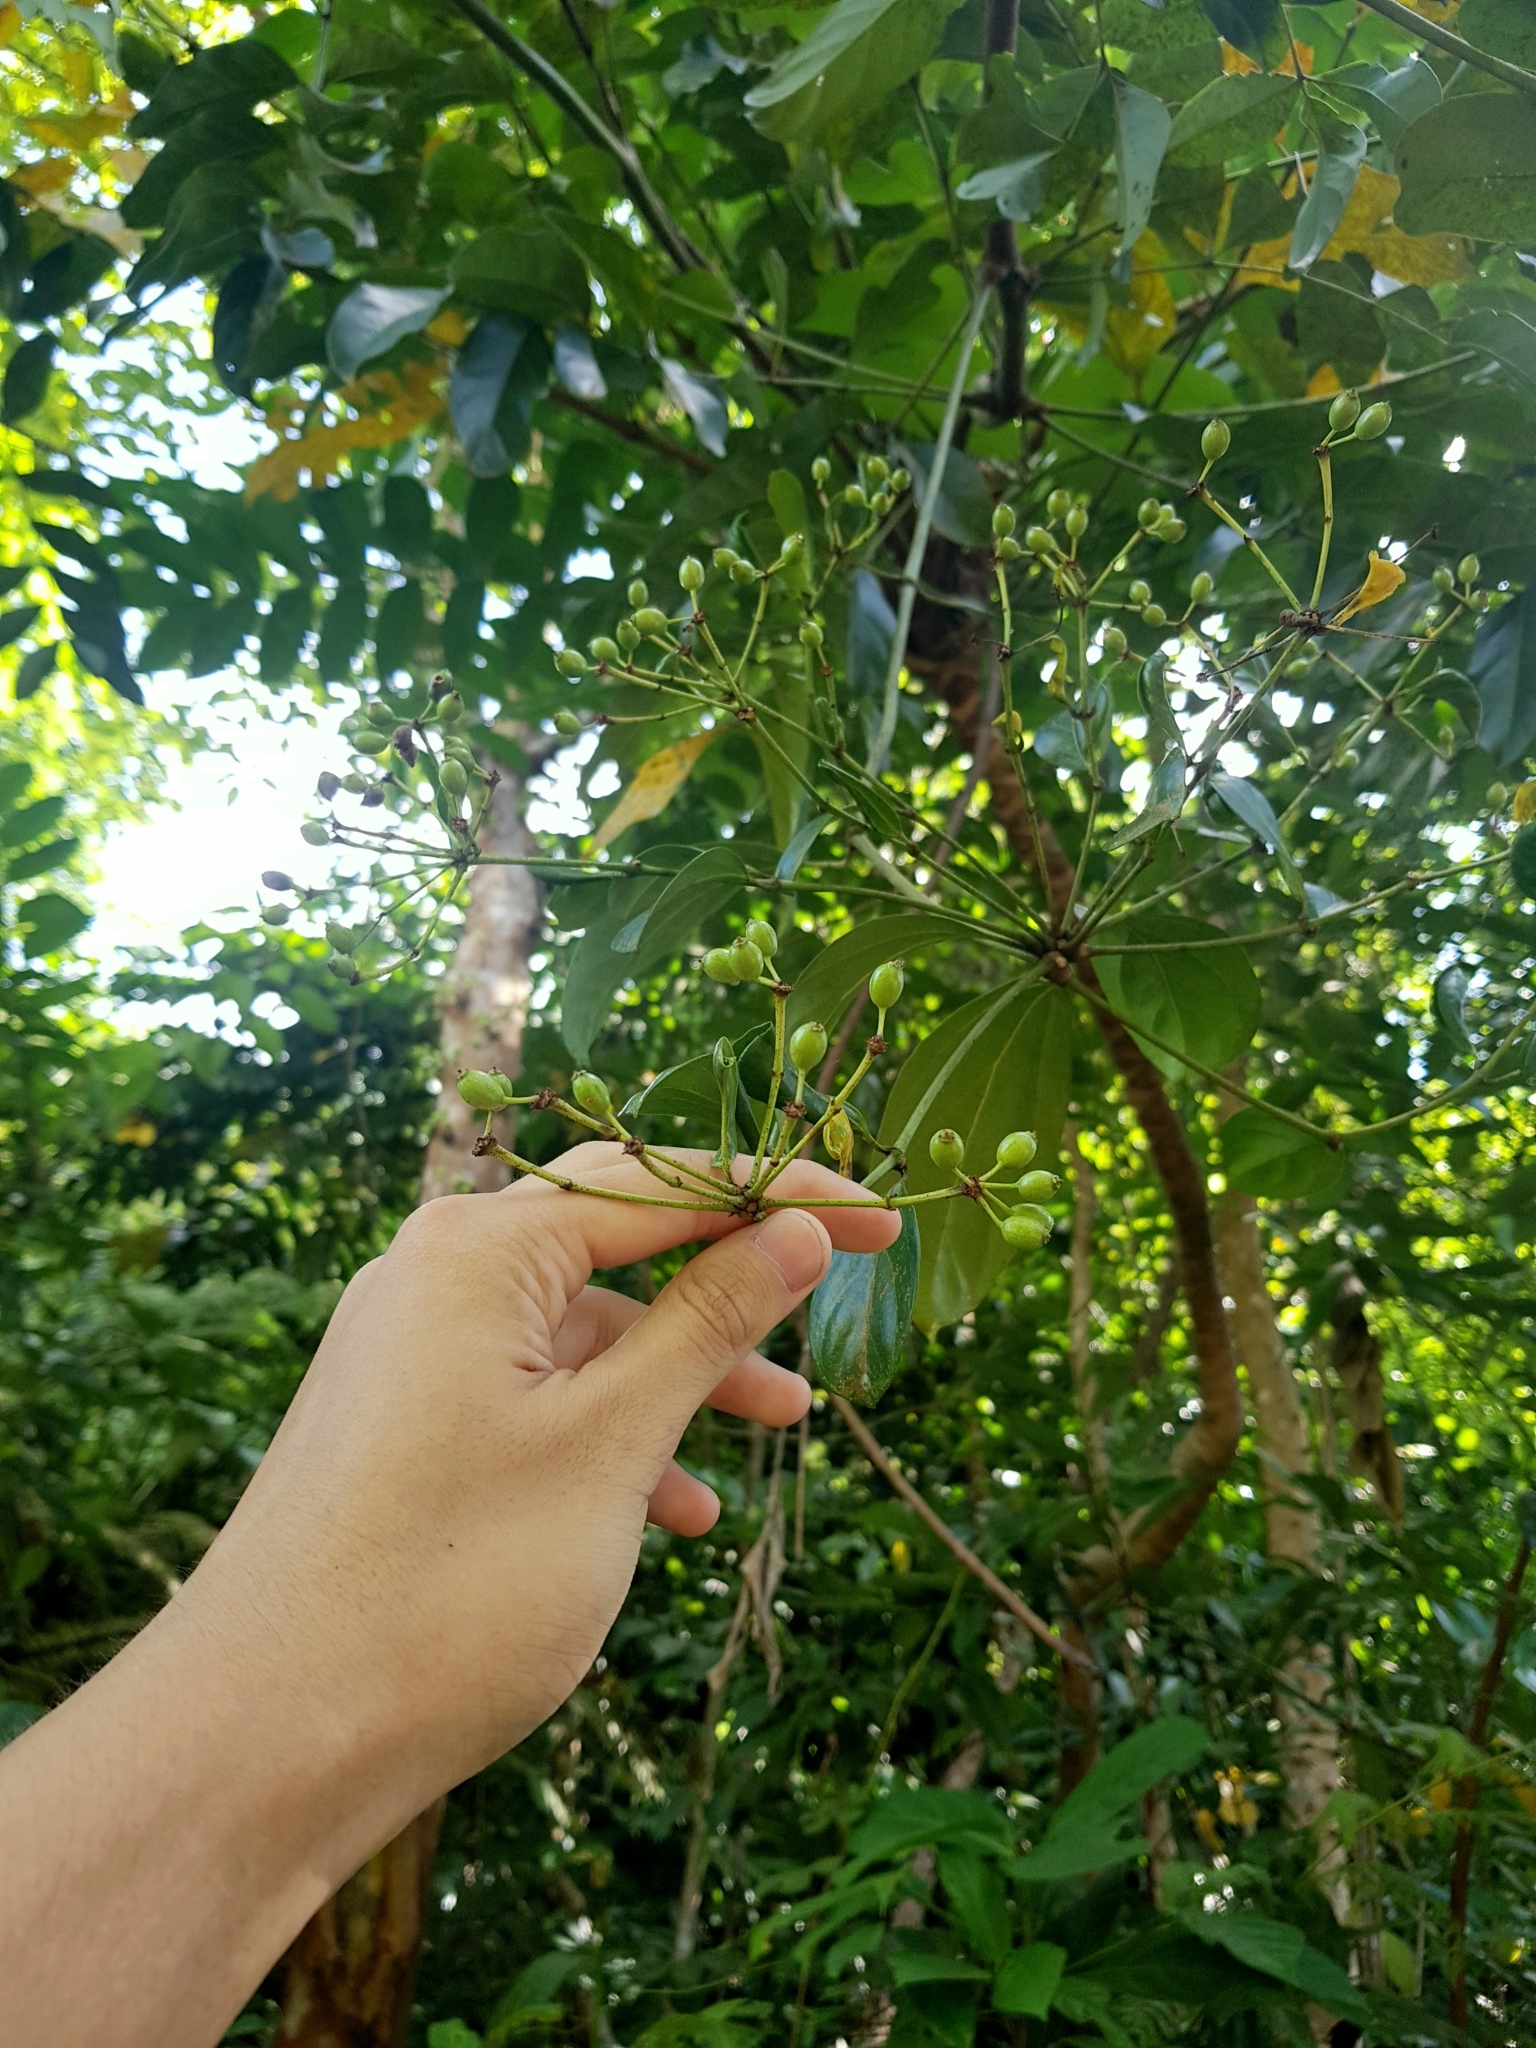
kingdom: Plantae
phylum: Tracheophyta
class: Magnoliopsida
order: Apiales
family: Araliaceae
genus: Polyscias
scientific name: Polyscias diversifolia
